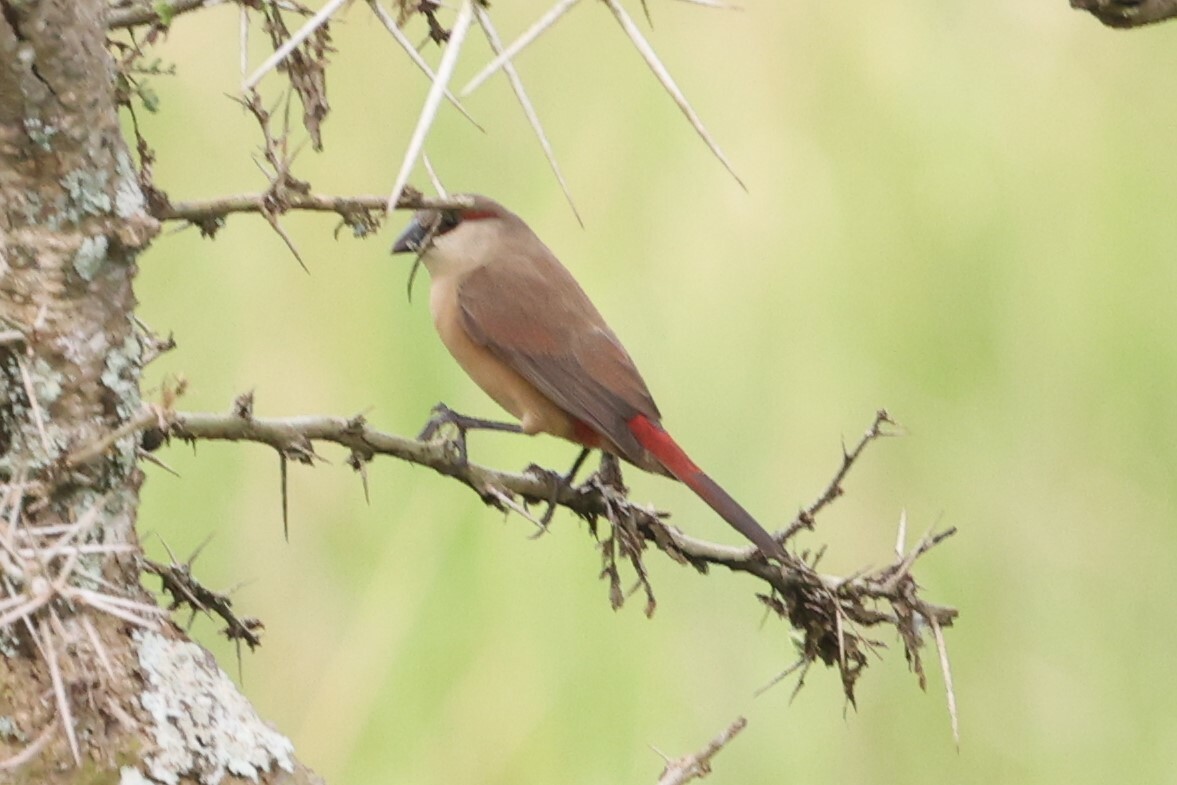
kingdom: Animalia
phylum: Chordata
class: Aves
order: Passeriformes
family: Estrildidae
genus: Estrilda
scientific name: Estrilda rhodopyga
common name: Crimson-rumped waxbill
